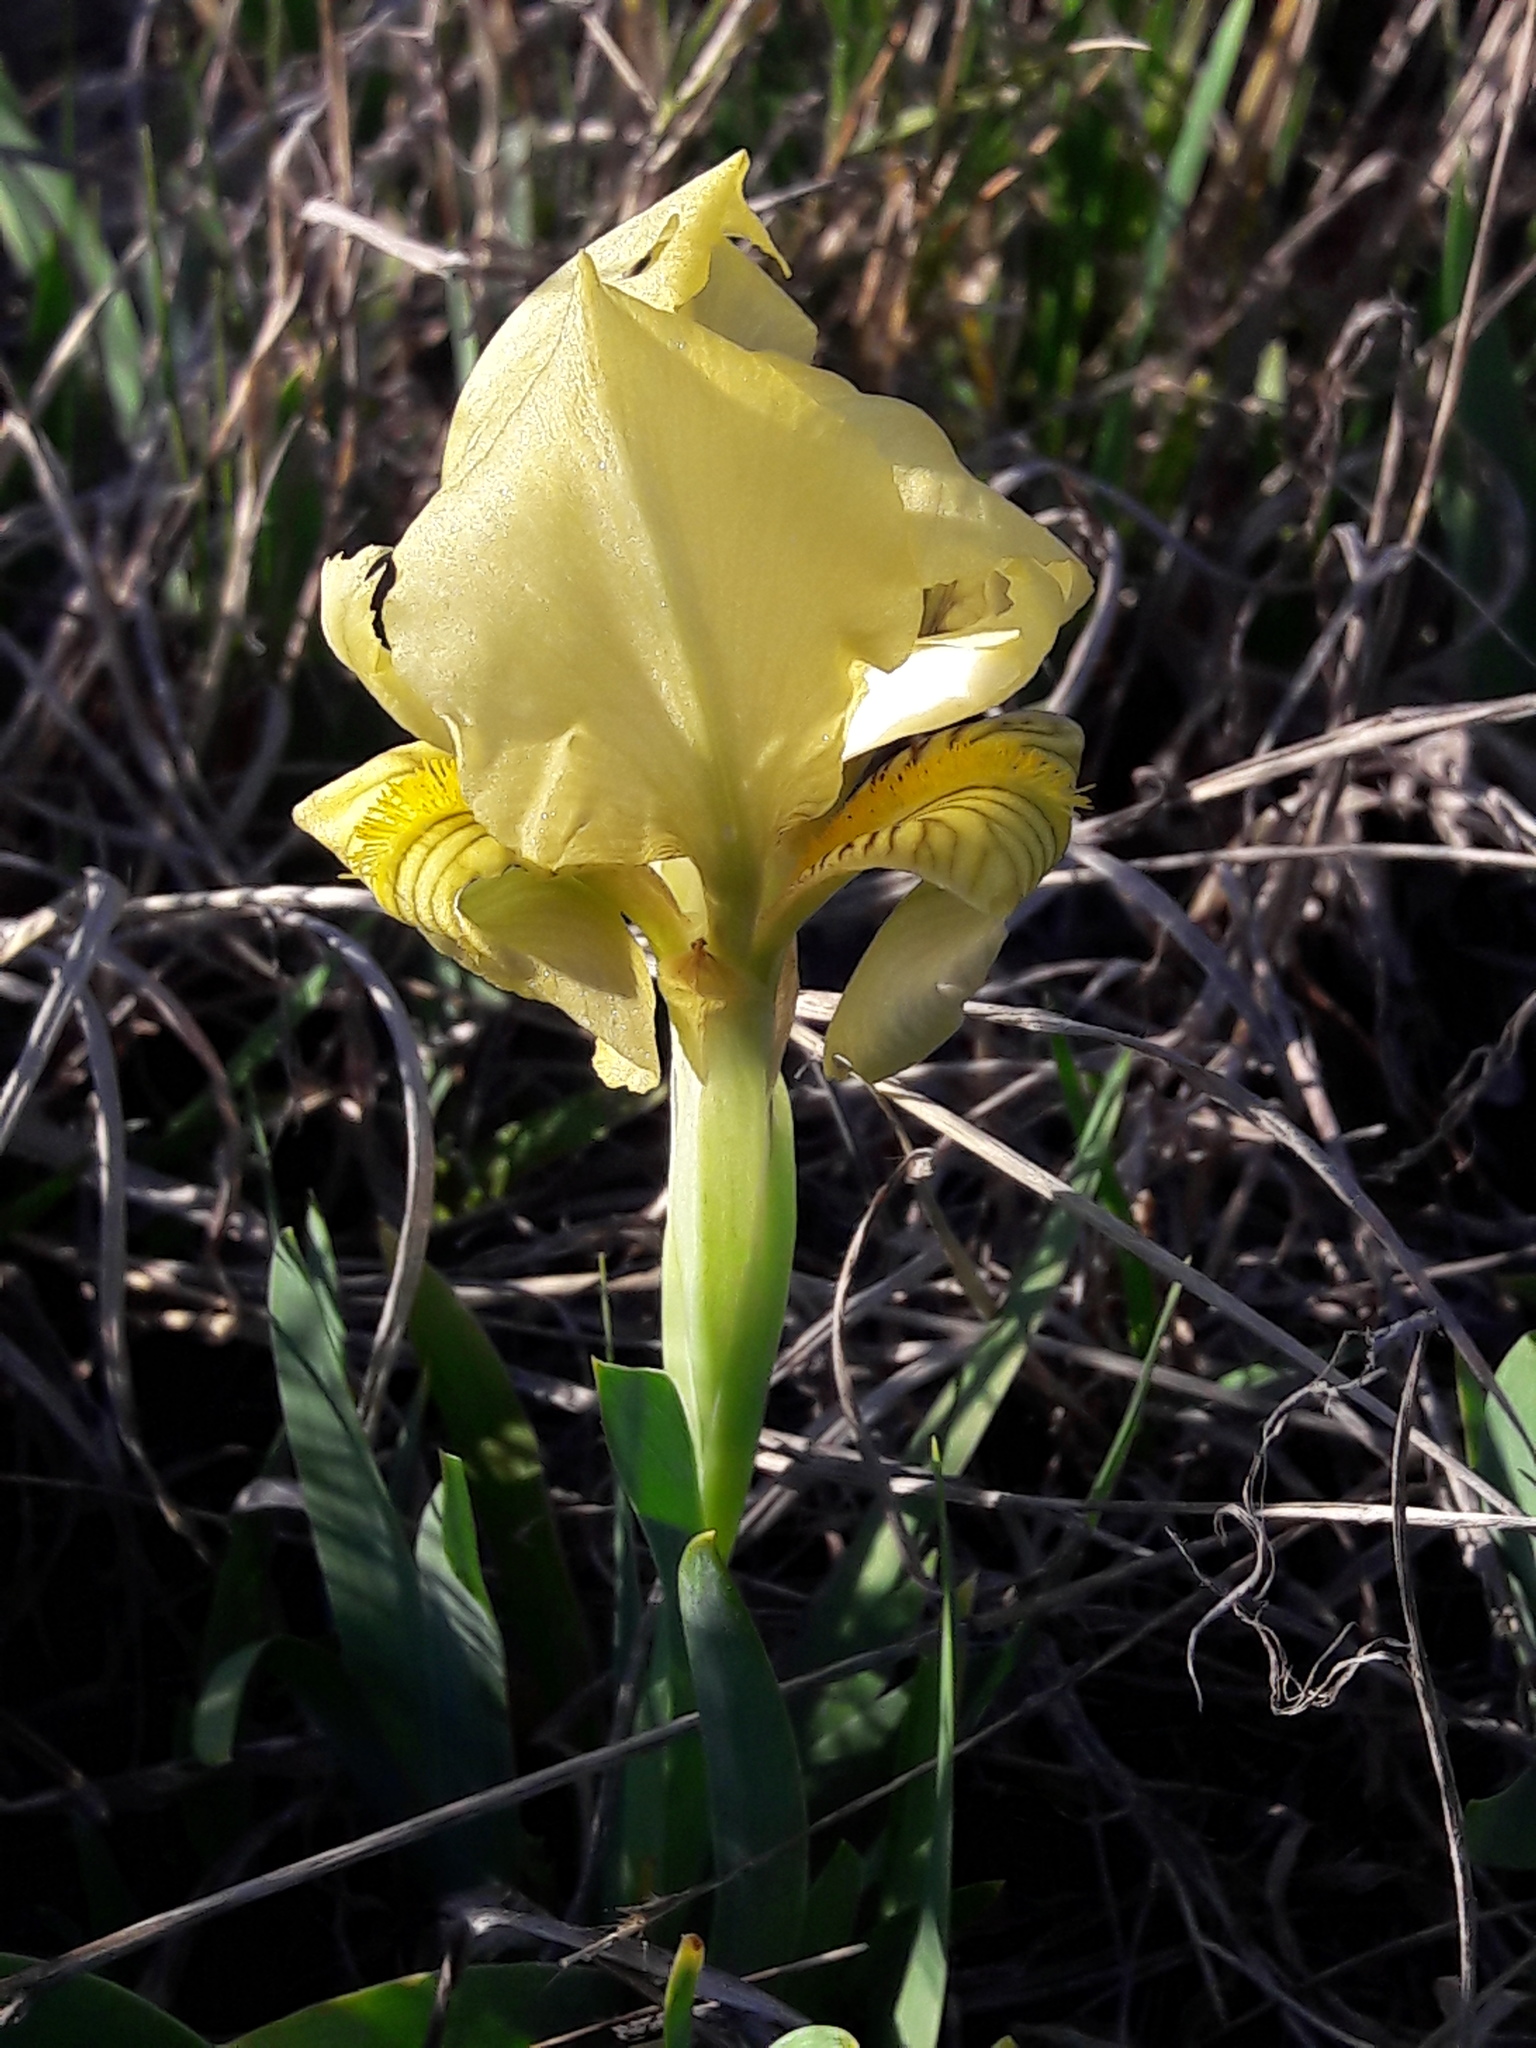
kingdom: Plantae
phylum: Tracheophyta
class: Liliopsida
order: Asparagales
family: Iridaceae
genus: Iris
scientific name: Iris lutescens
